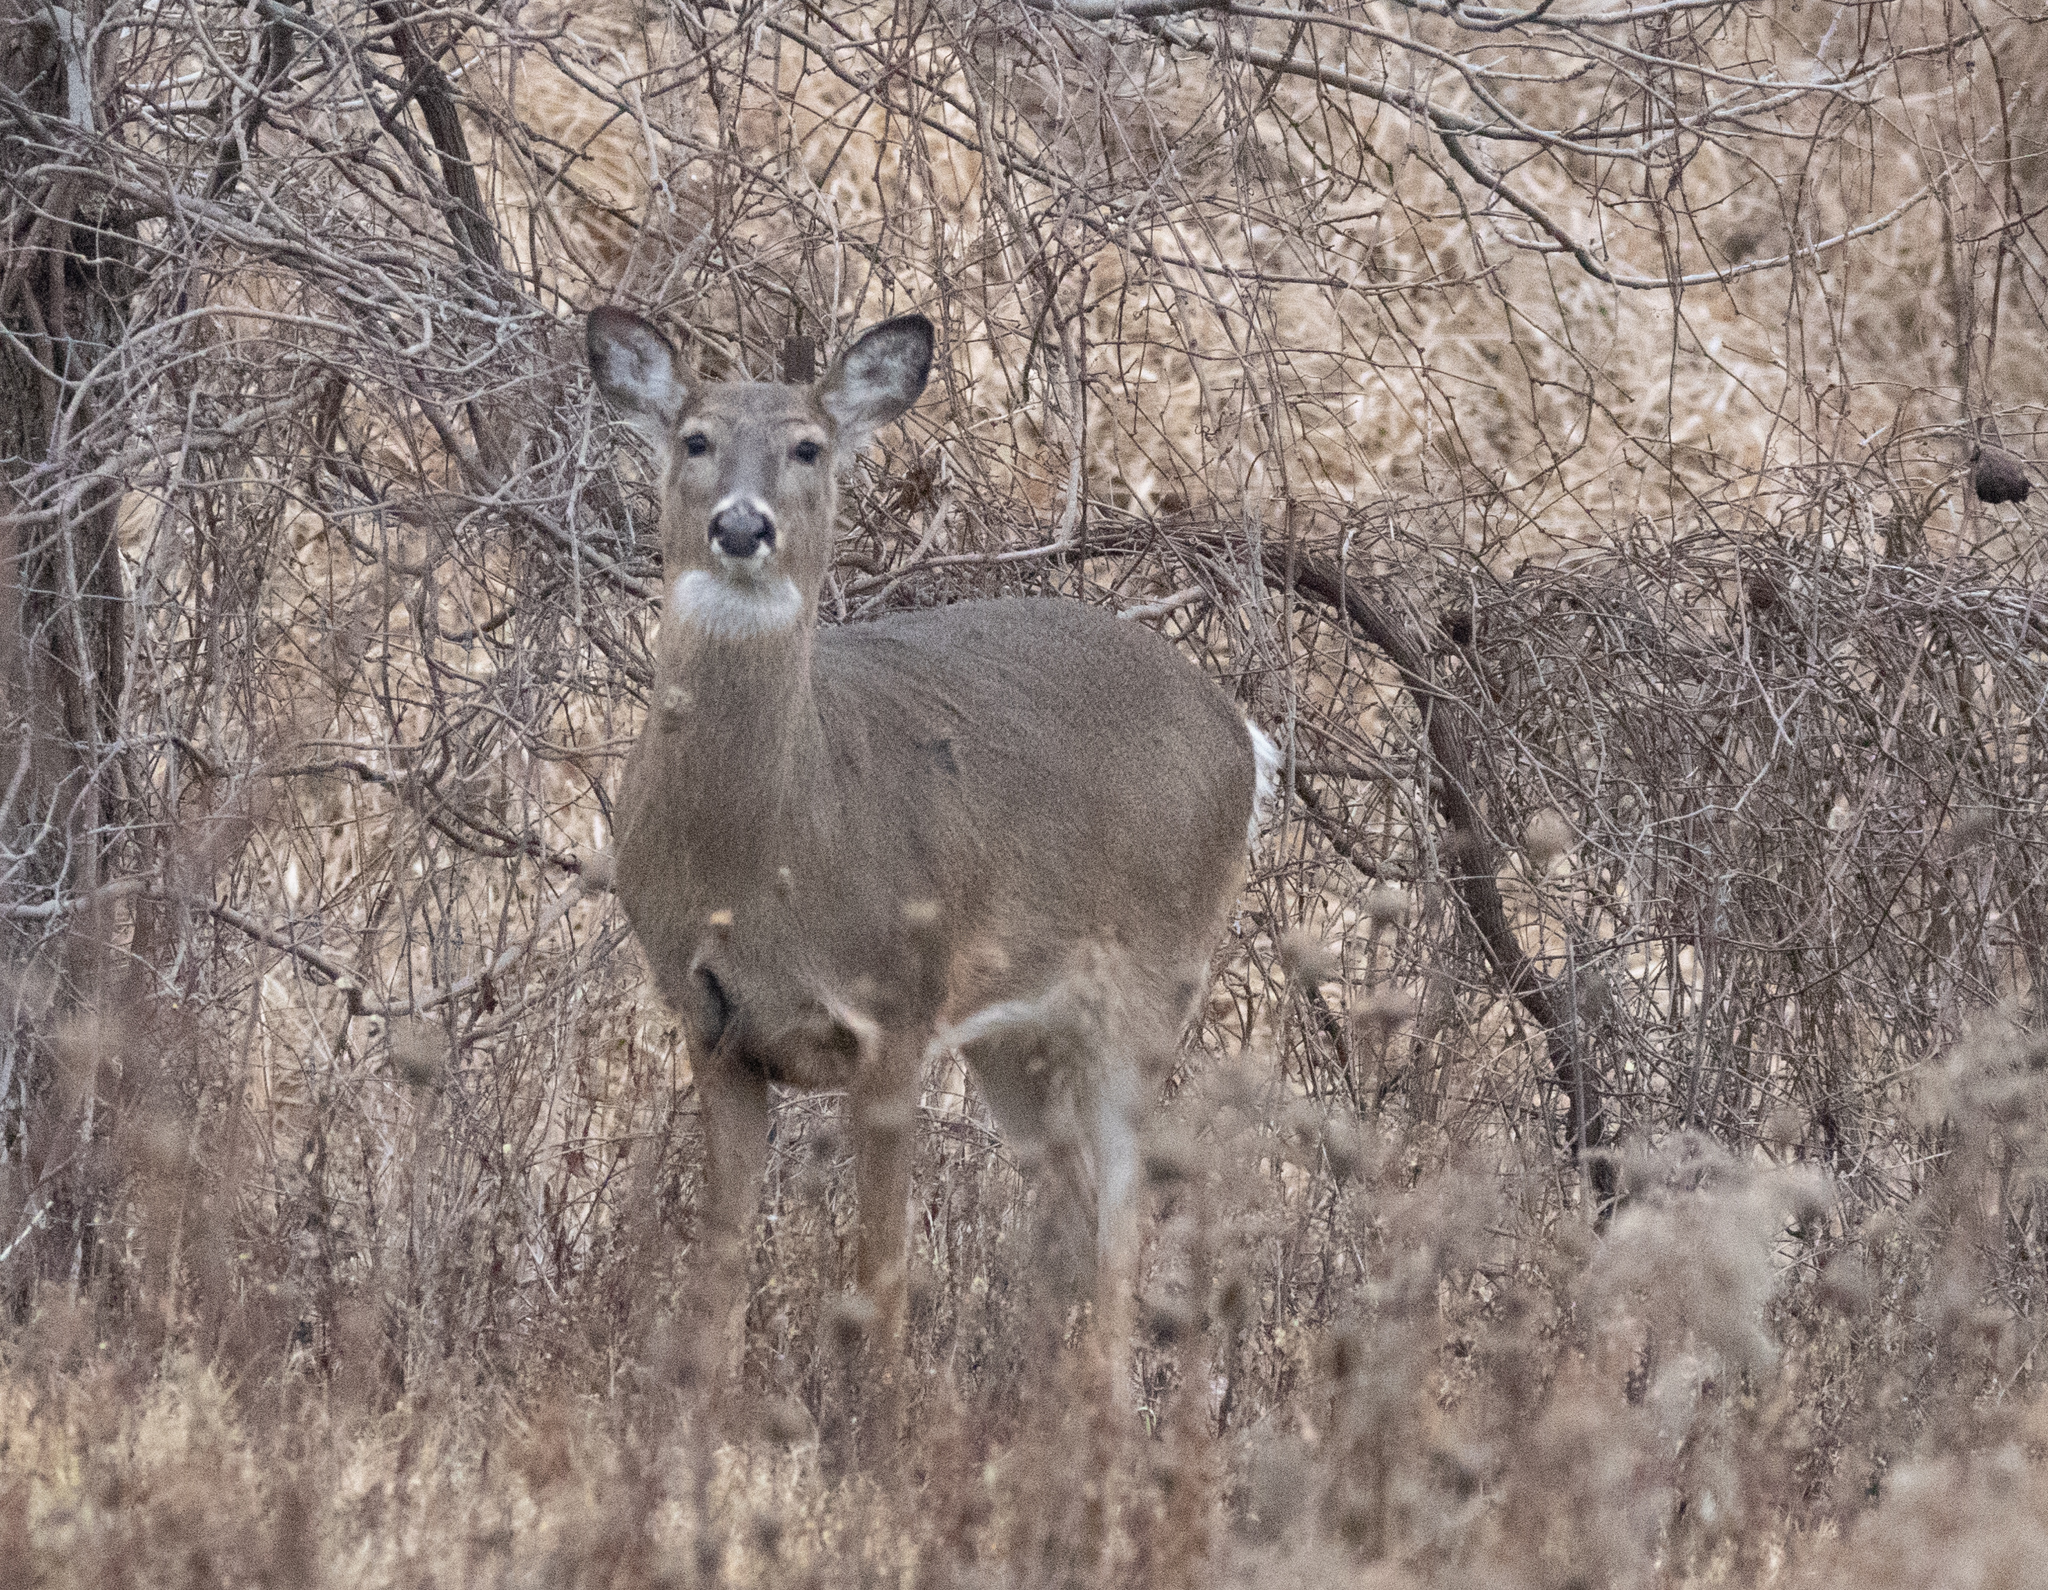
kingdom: Animalia
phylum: Chordata
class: Mammalia
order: Artiodactyla
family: Cervidae
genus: Odocoileus
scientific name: Odocoileus virginianus
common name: White-tailed deer
